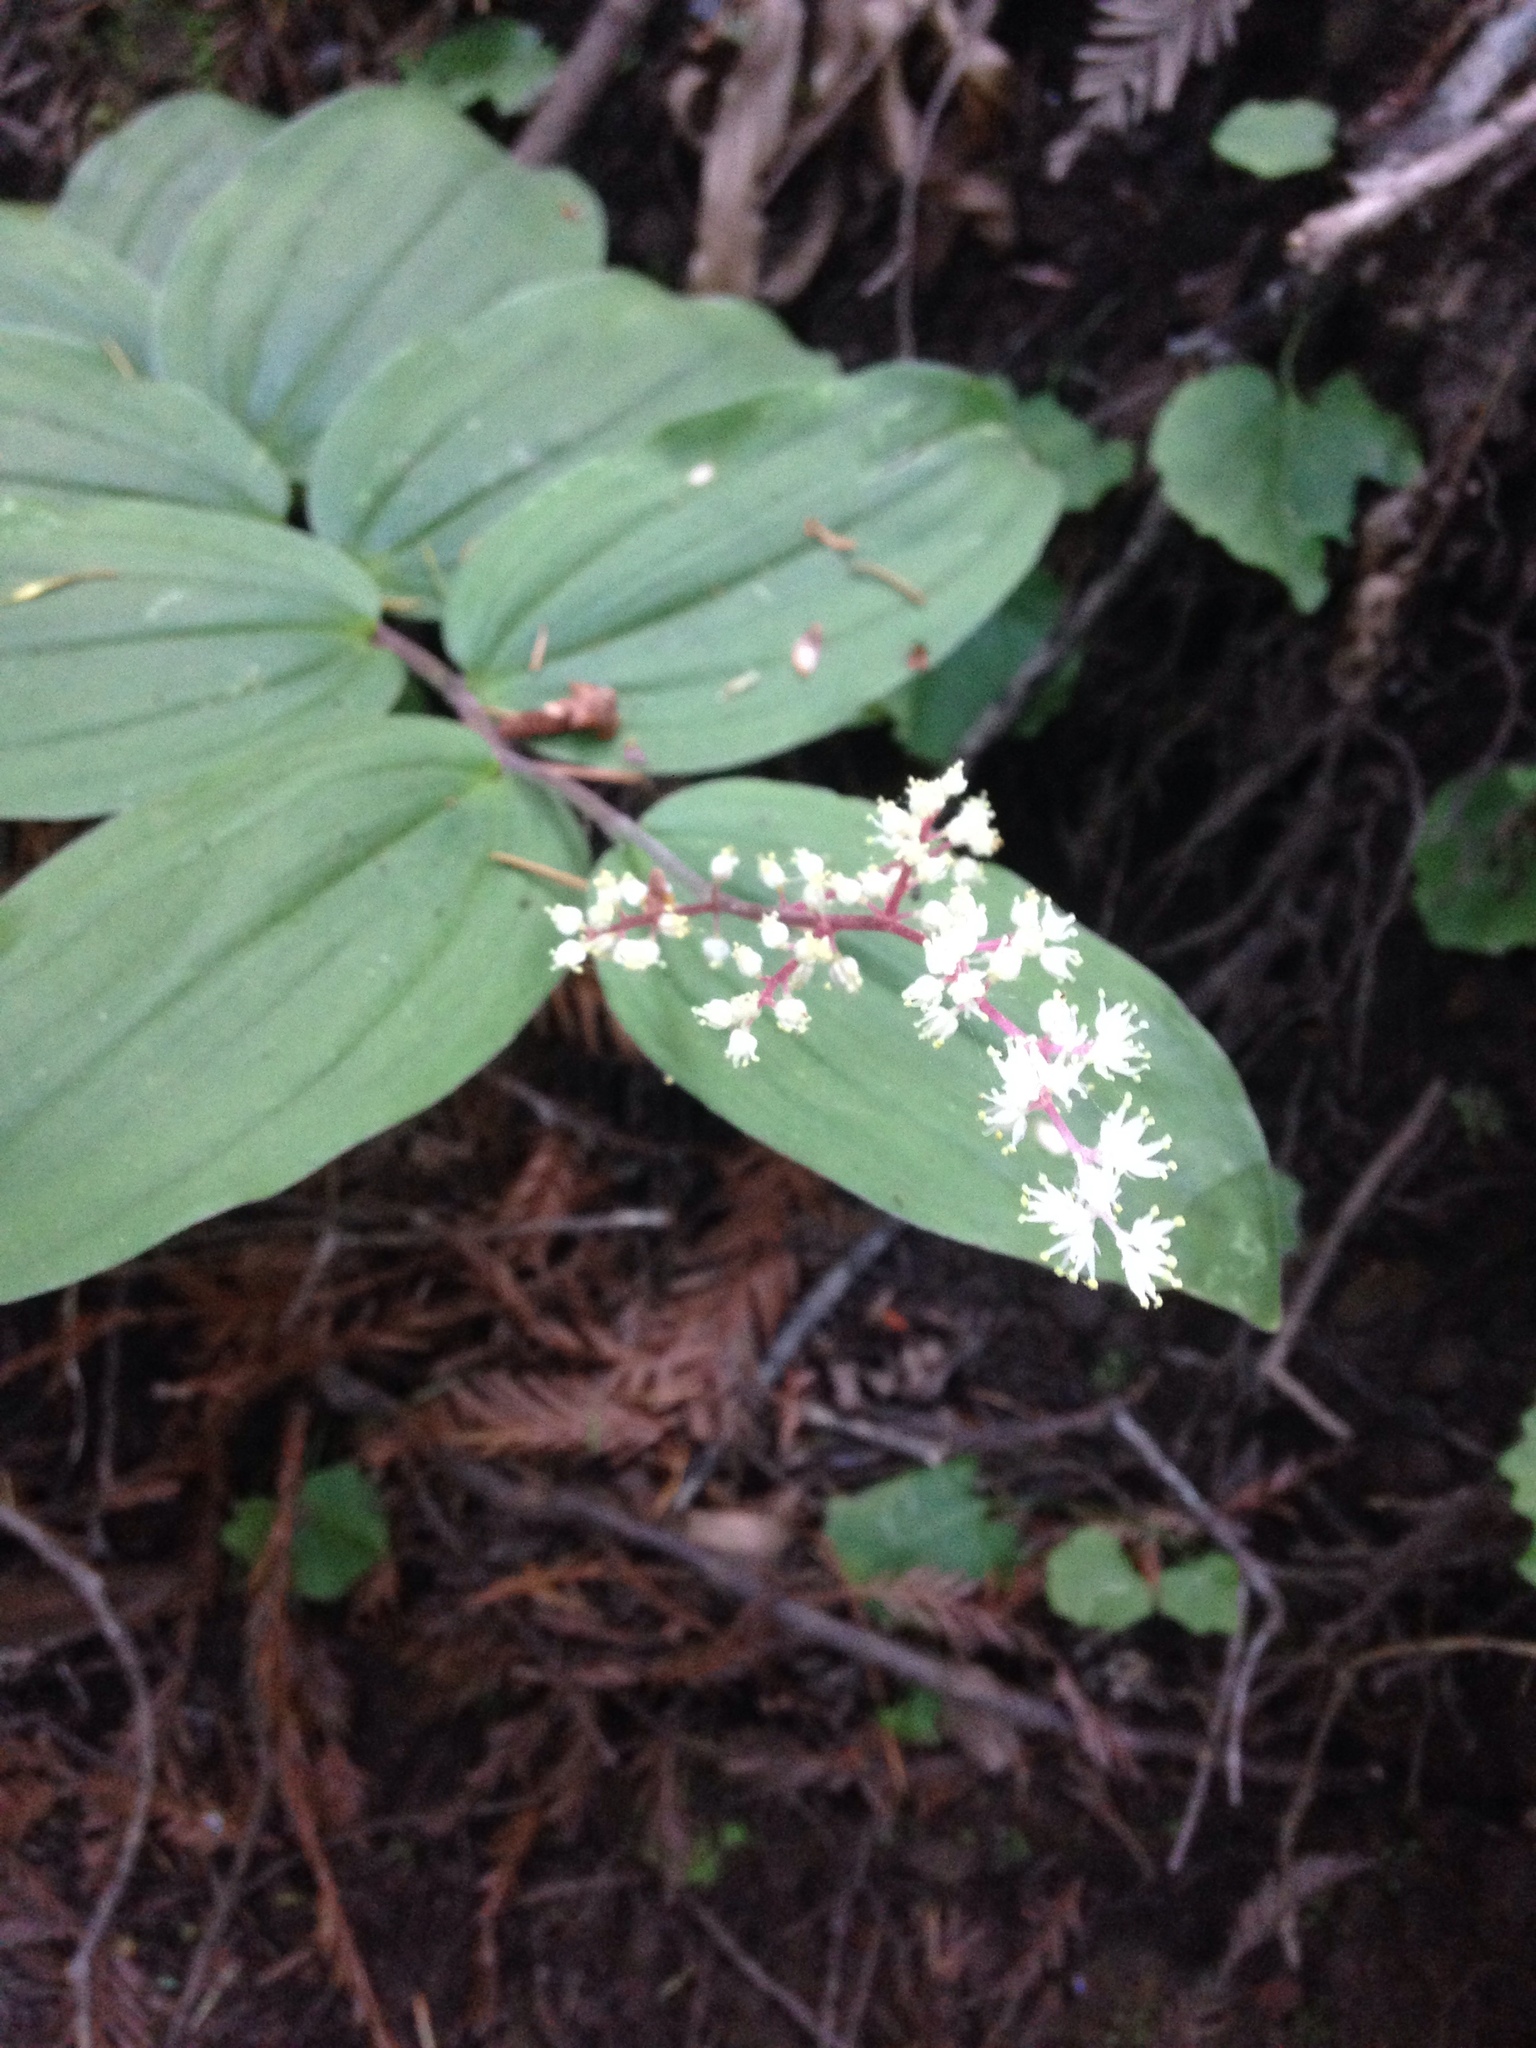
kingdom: Plantae
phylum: Tracheophyta
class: Liliopsida
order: Asparagales
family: Asparagaceae
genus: Maianthemum
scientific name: Maianthemum racemosum
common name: False spikenard
